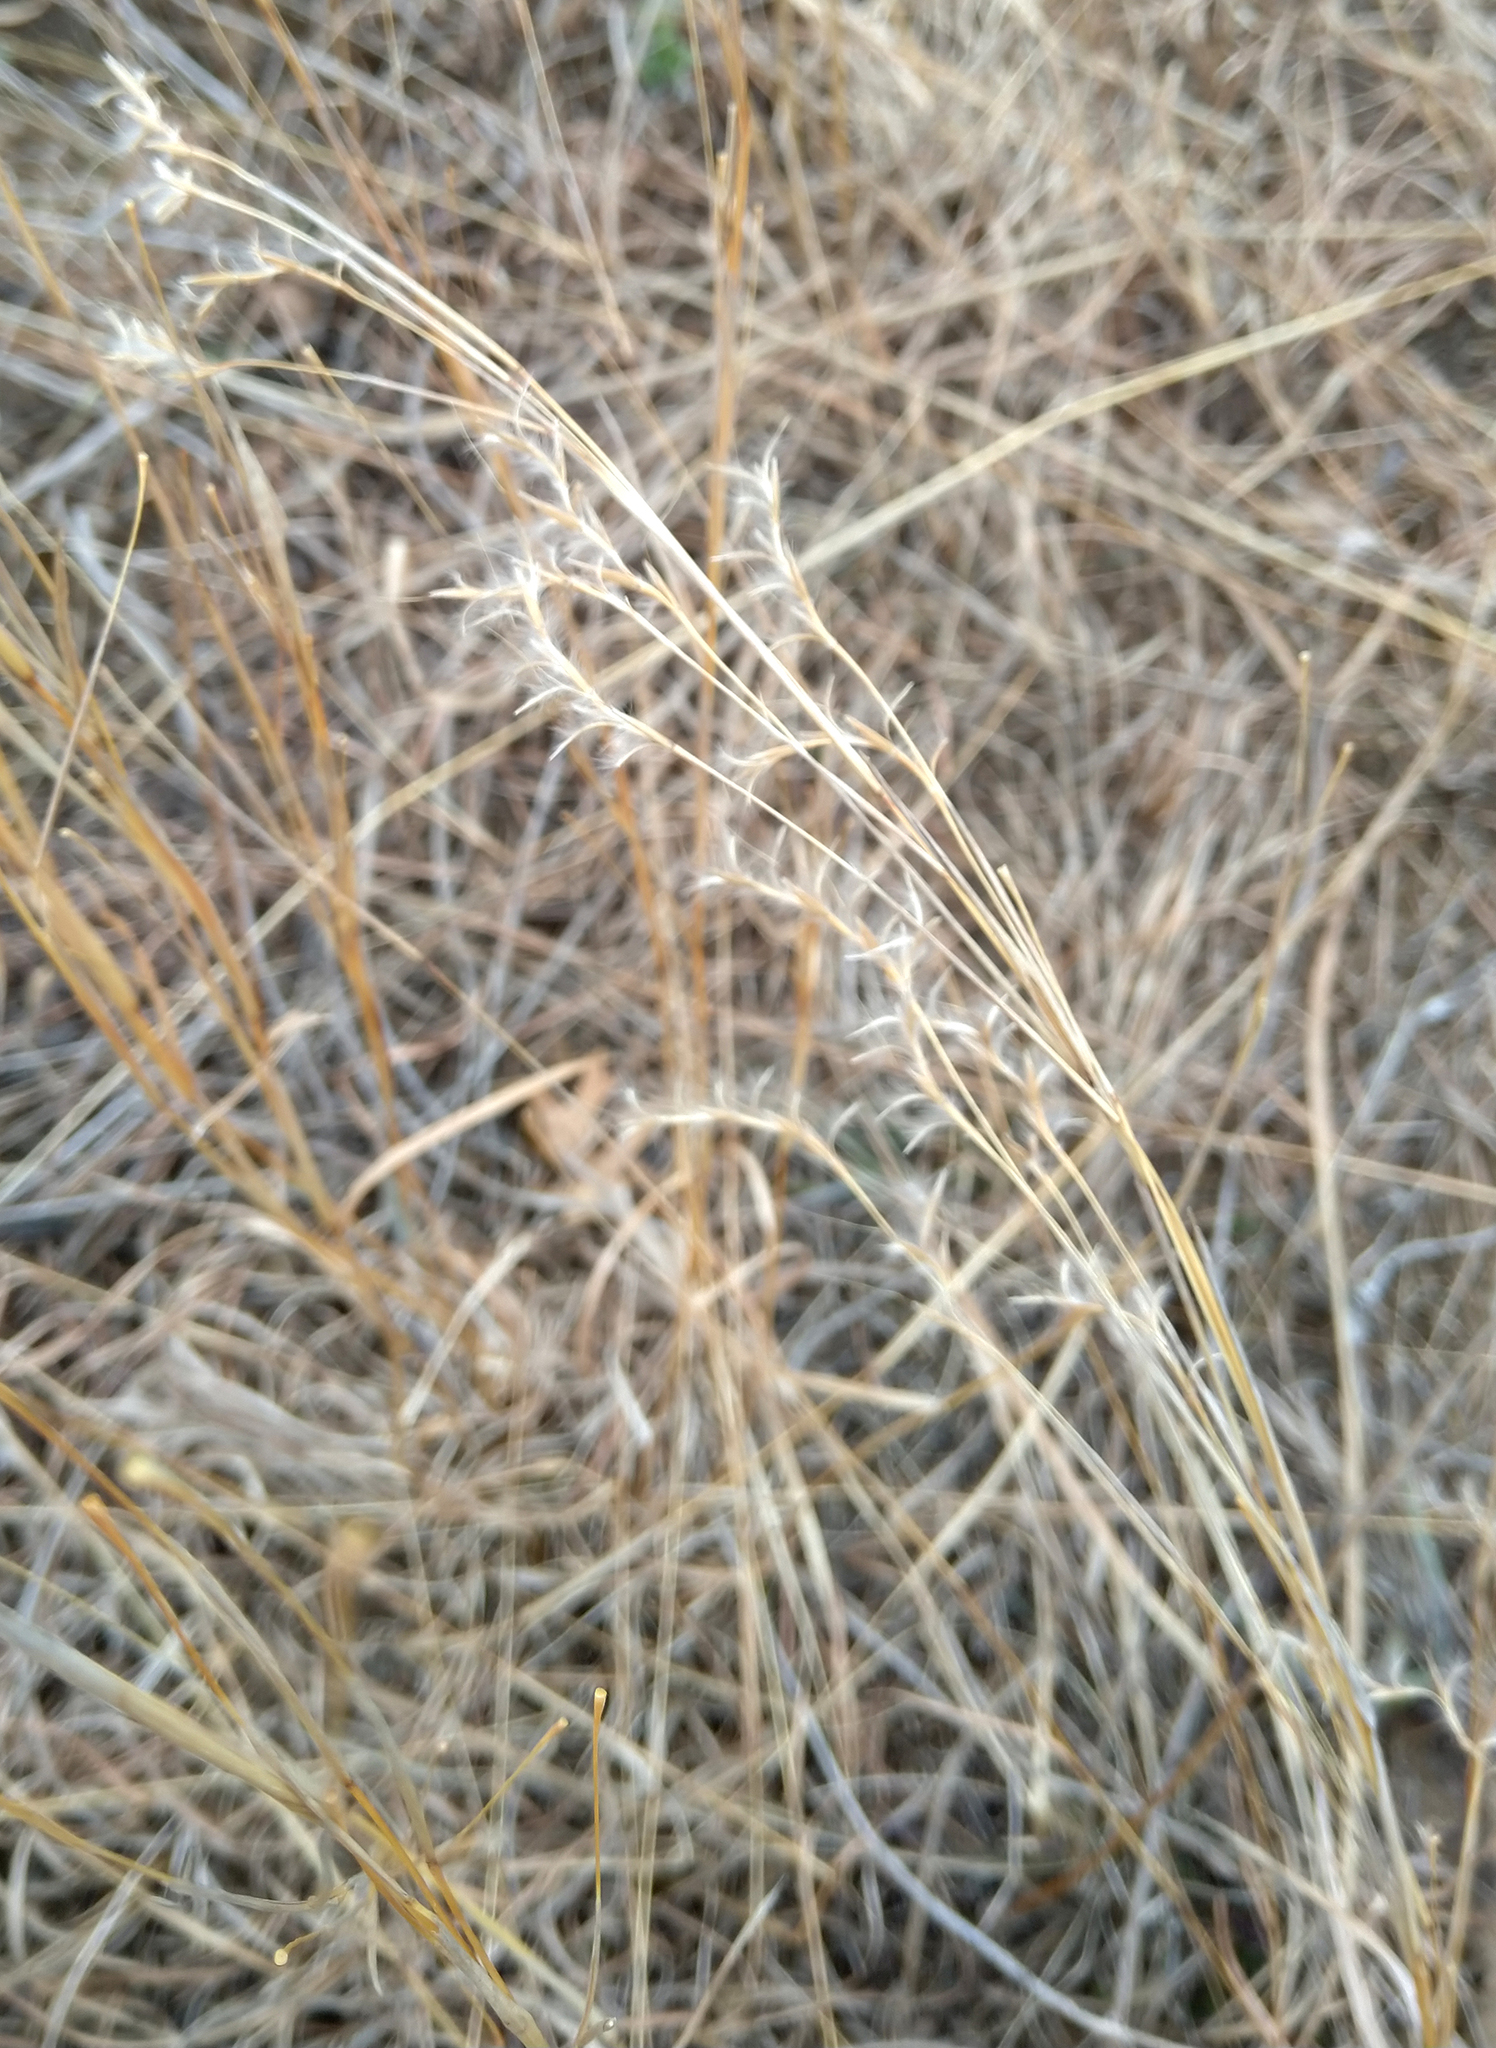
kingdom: Plantae
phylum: Tracheophyta
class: Liliopsida
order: Poales
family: Poaceae
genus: Schizachyrium
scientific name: Schizachyrium scoparium
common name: Little bluestem
